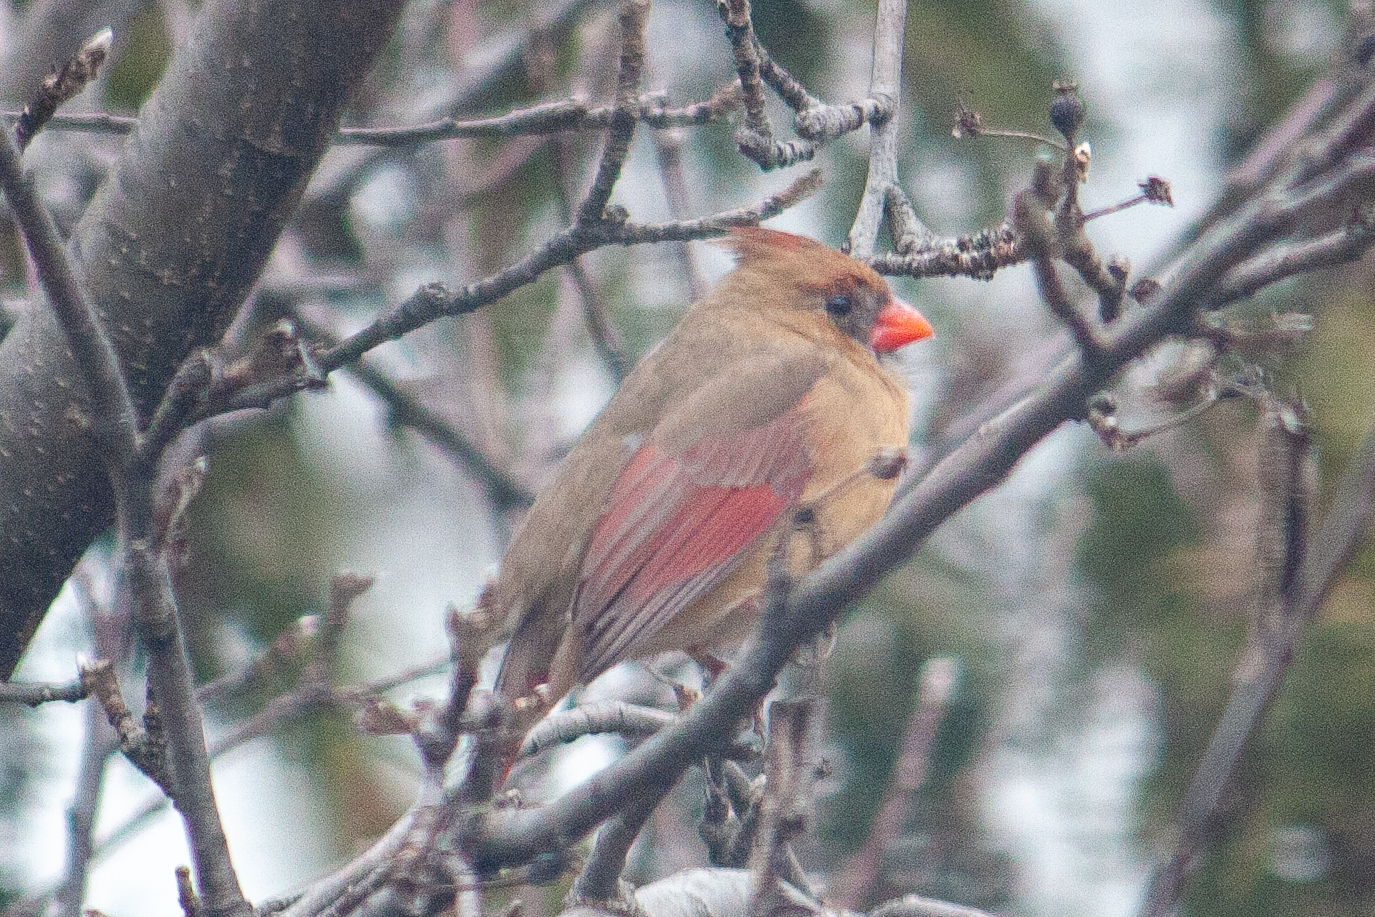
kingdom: Animalia
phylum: Chordata
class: Aves
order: Passeriformes
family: Cardinalidae
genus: Cardinalis
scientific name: Cardinalis cardinalis
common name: Northern cardinal
